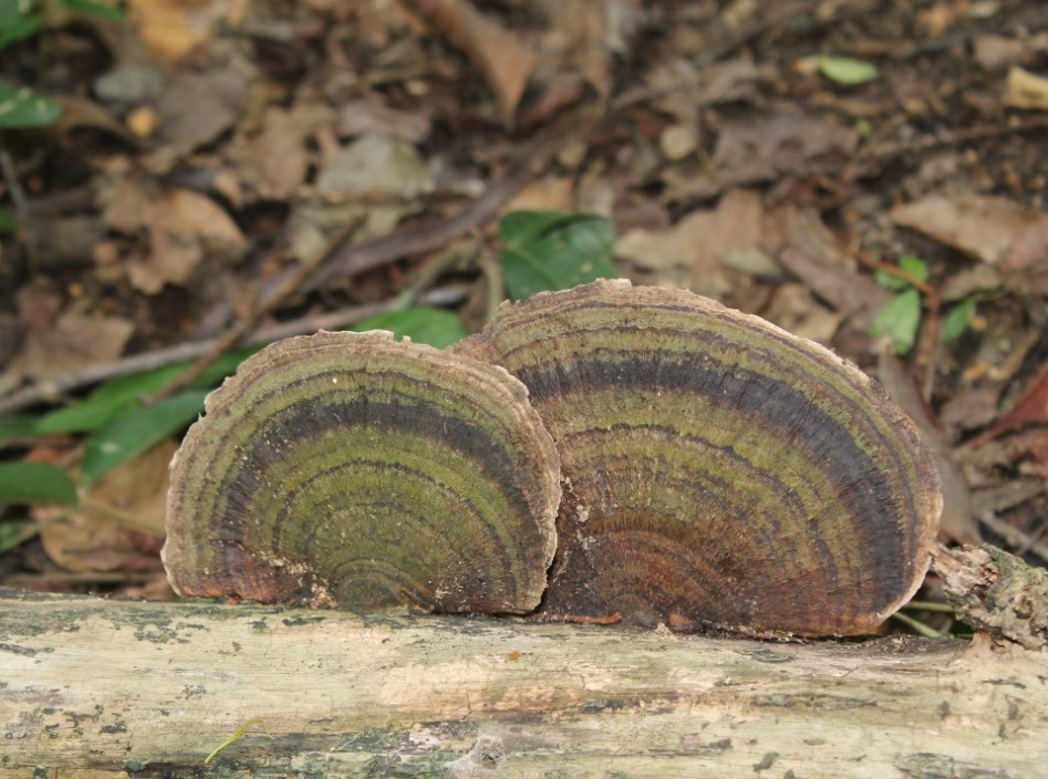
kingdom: Fungi
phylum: Basidiomycota
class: Agaricomycetes
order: Polyporales
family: Polyporaceae
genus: Trametes
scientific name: Trametes variegata
